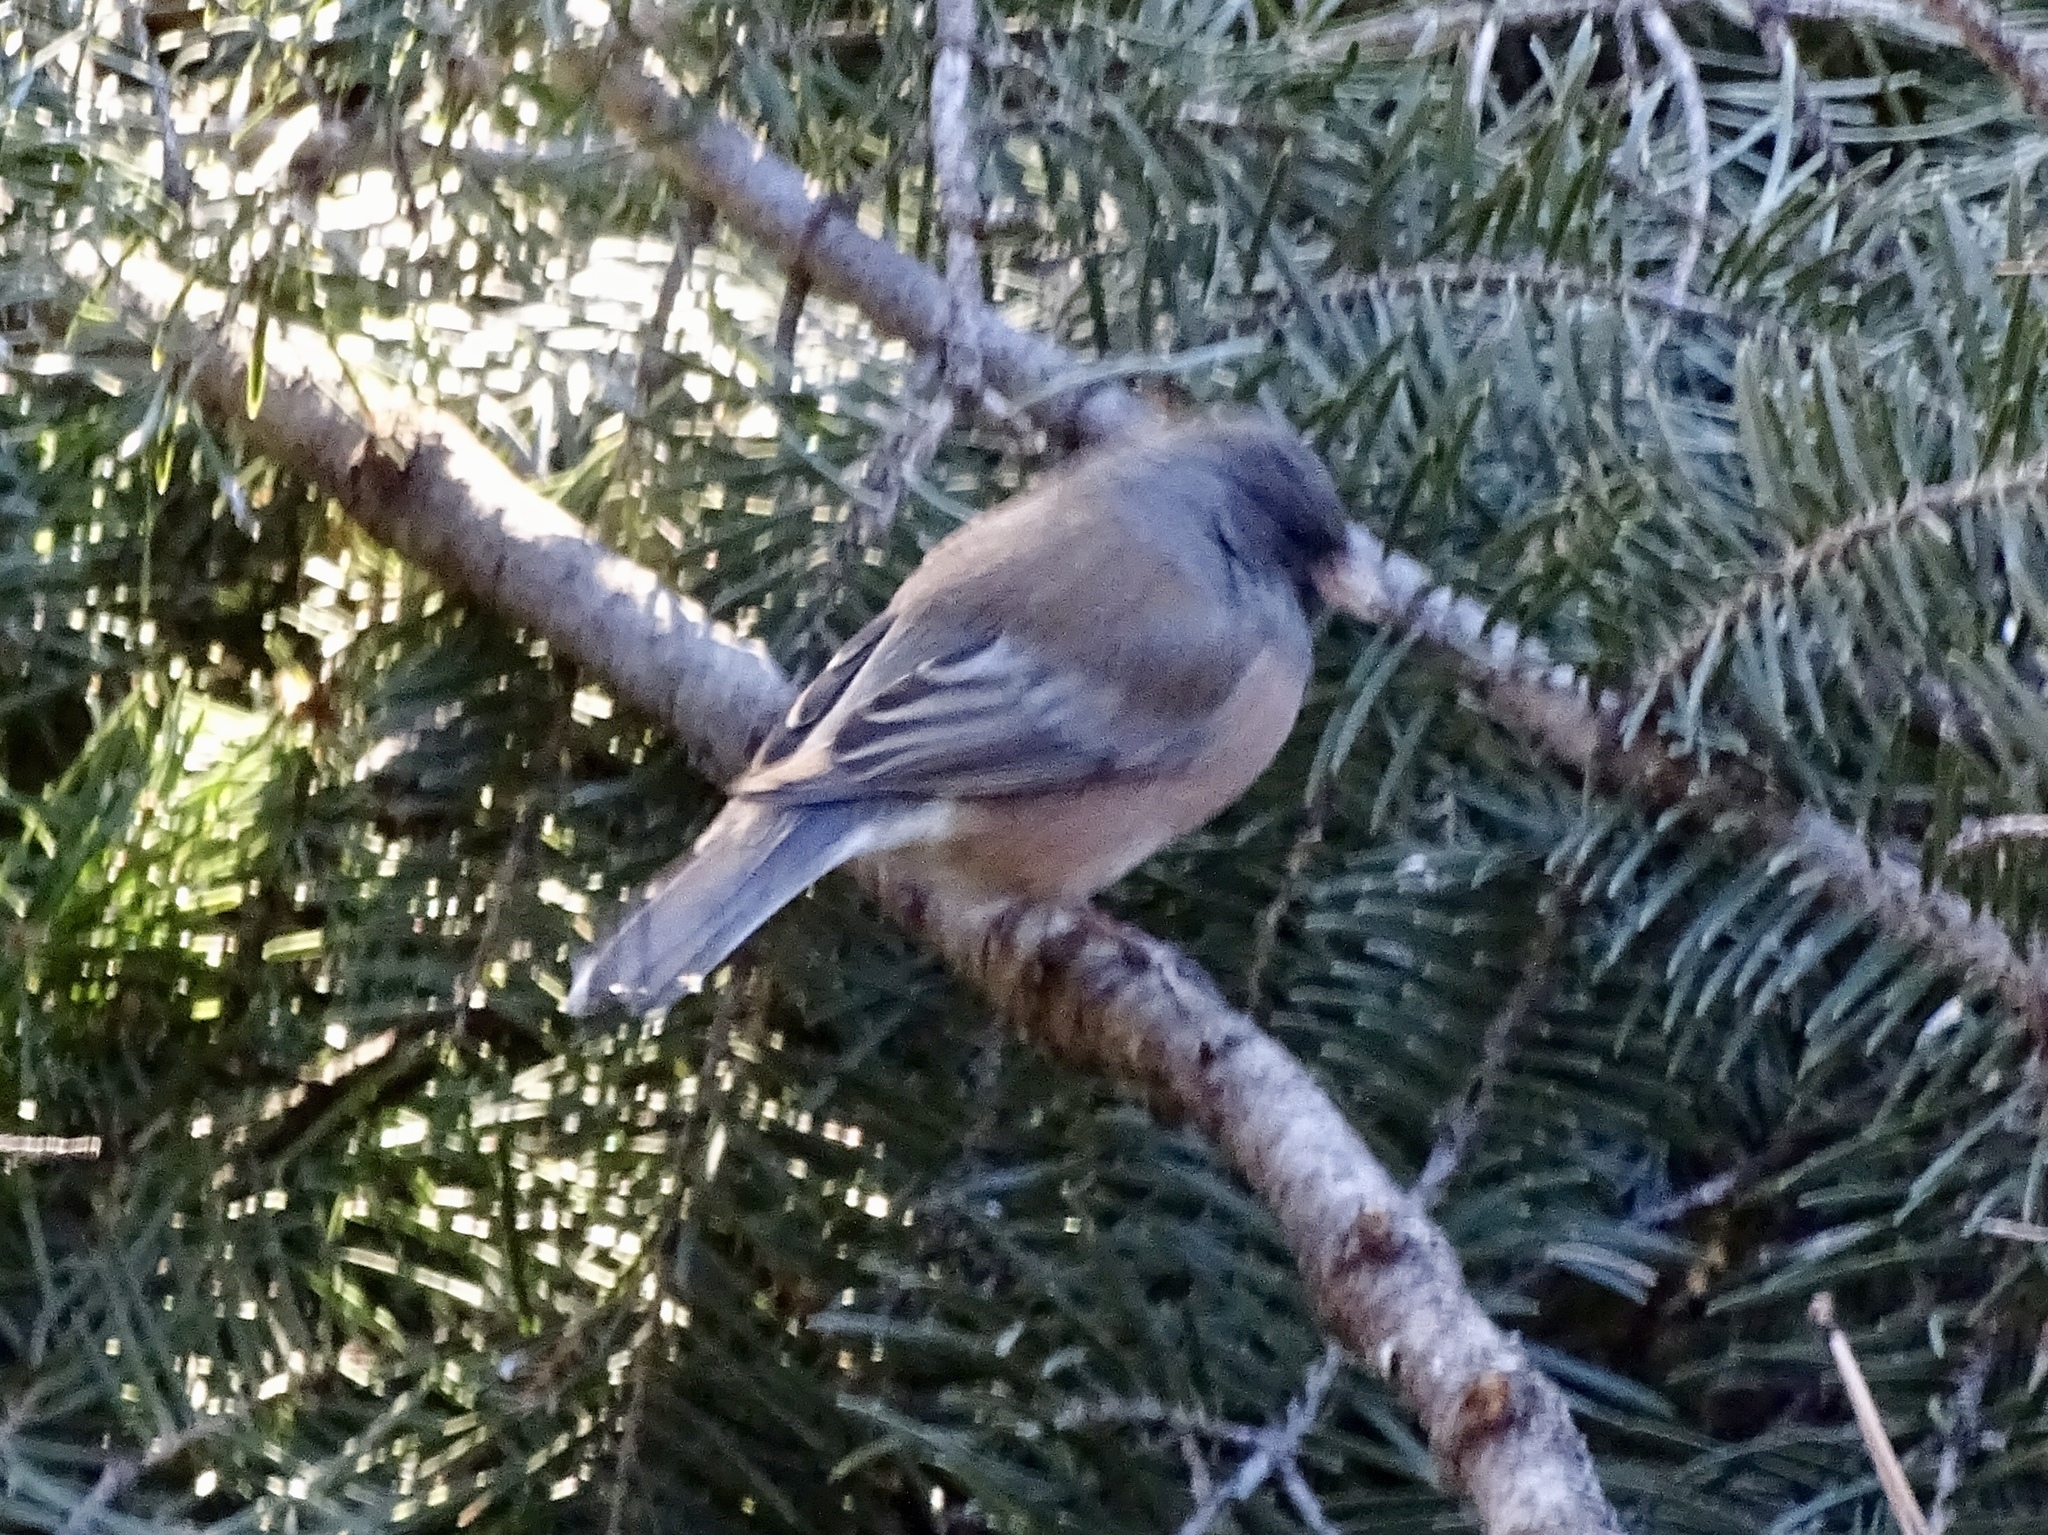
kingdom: Animalia
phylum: Chordata
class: Aves
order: Passeriformes
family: Passerellidae
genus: Junco
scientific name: Junco hyemalis
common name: Dark-eyed junco
